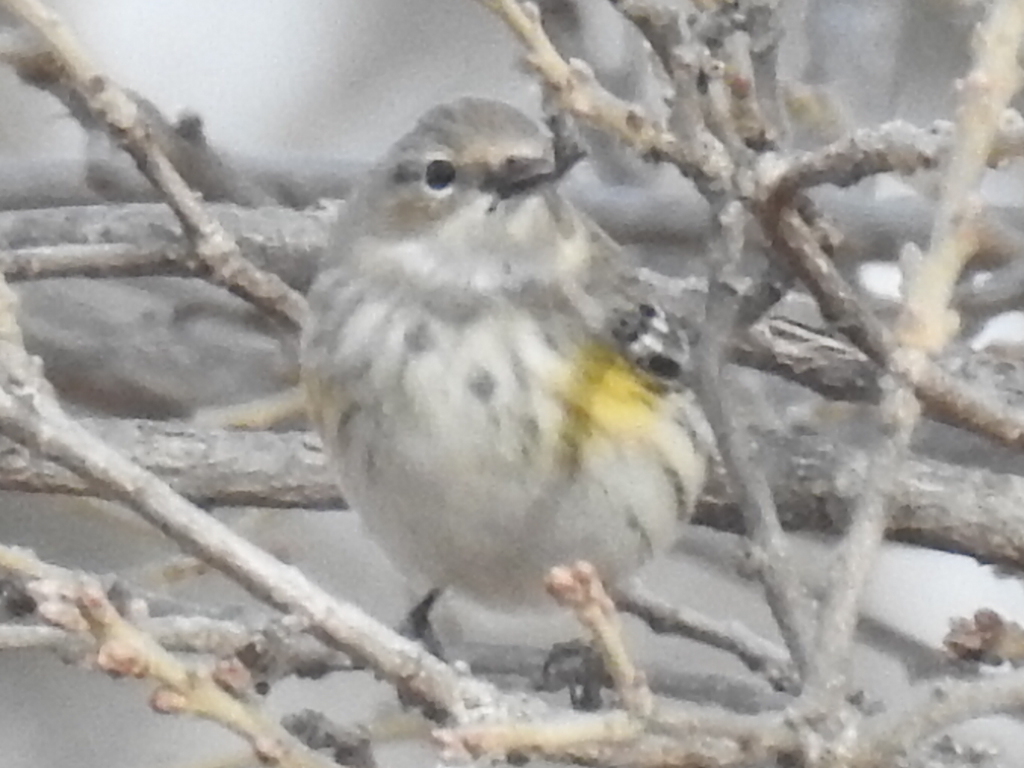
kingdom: Animalia
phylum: Chordata
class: Aves
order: Passeriformes
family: Parulidae
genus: Setophaga
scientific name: Setophaga coronata
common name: Myrtle warbler
